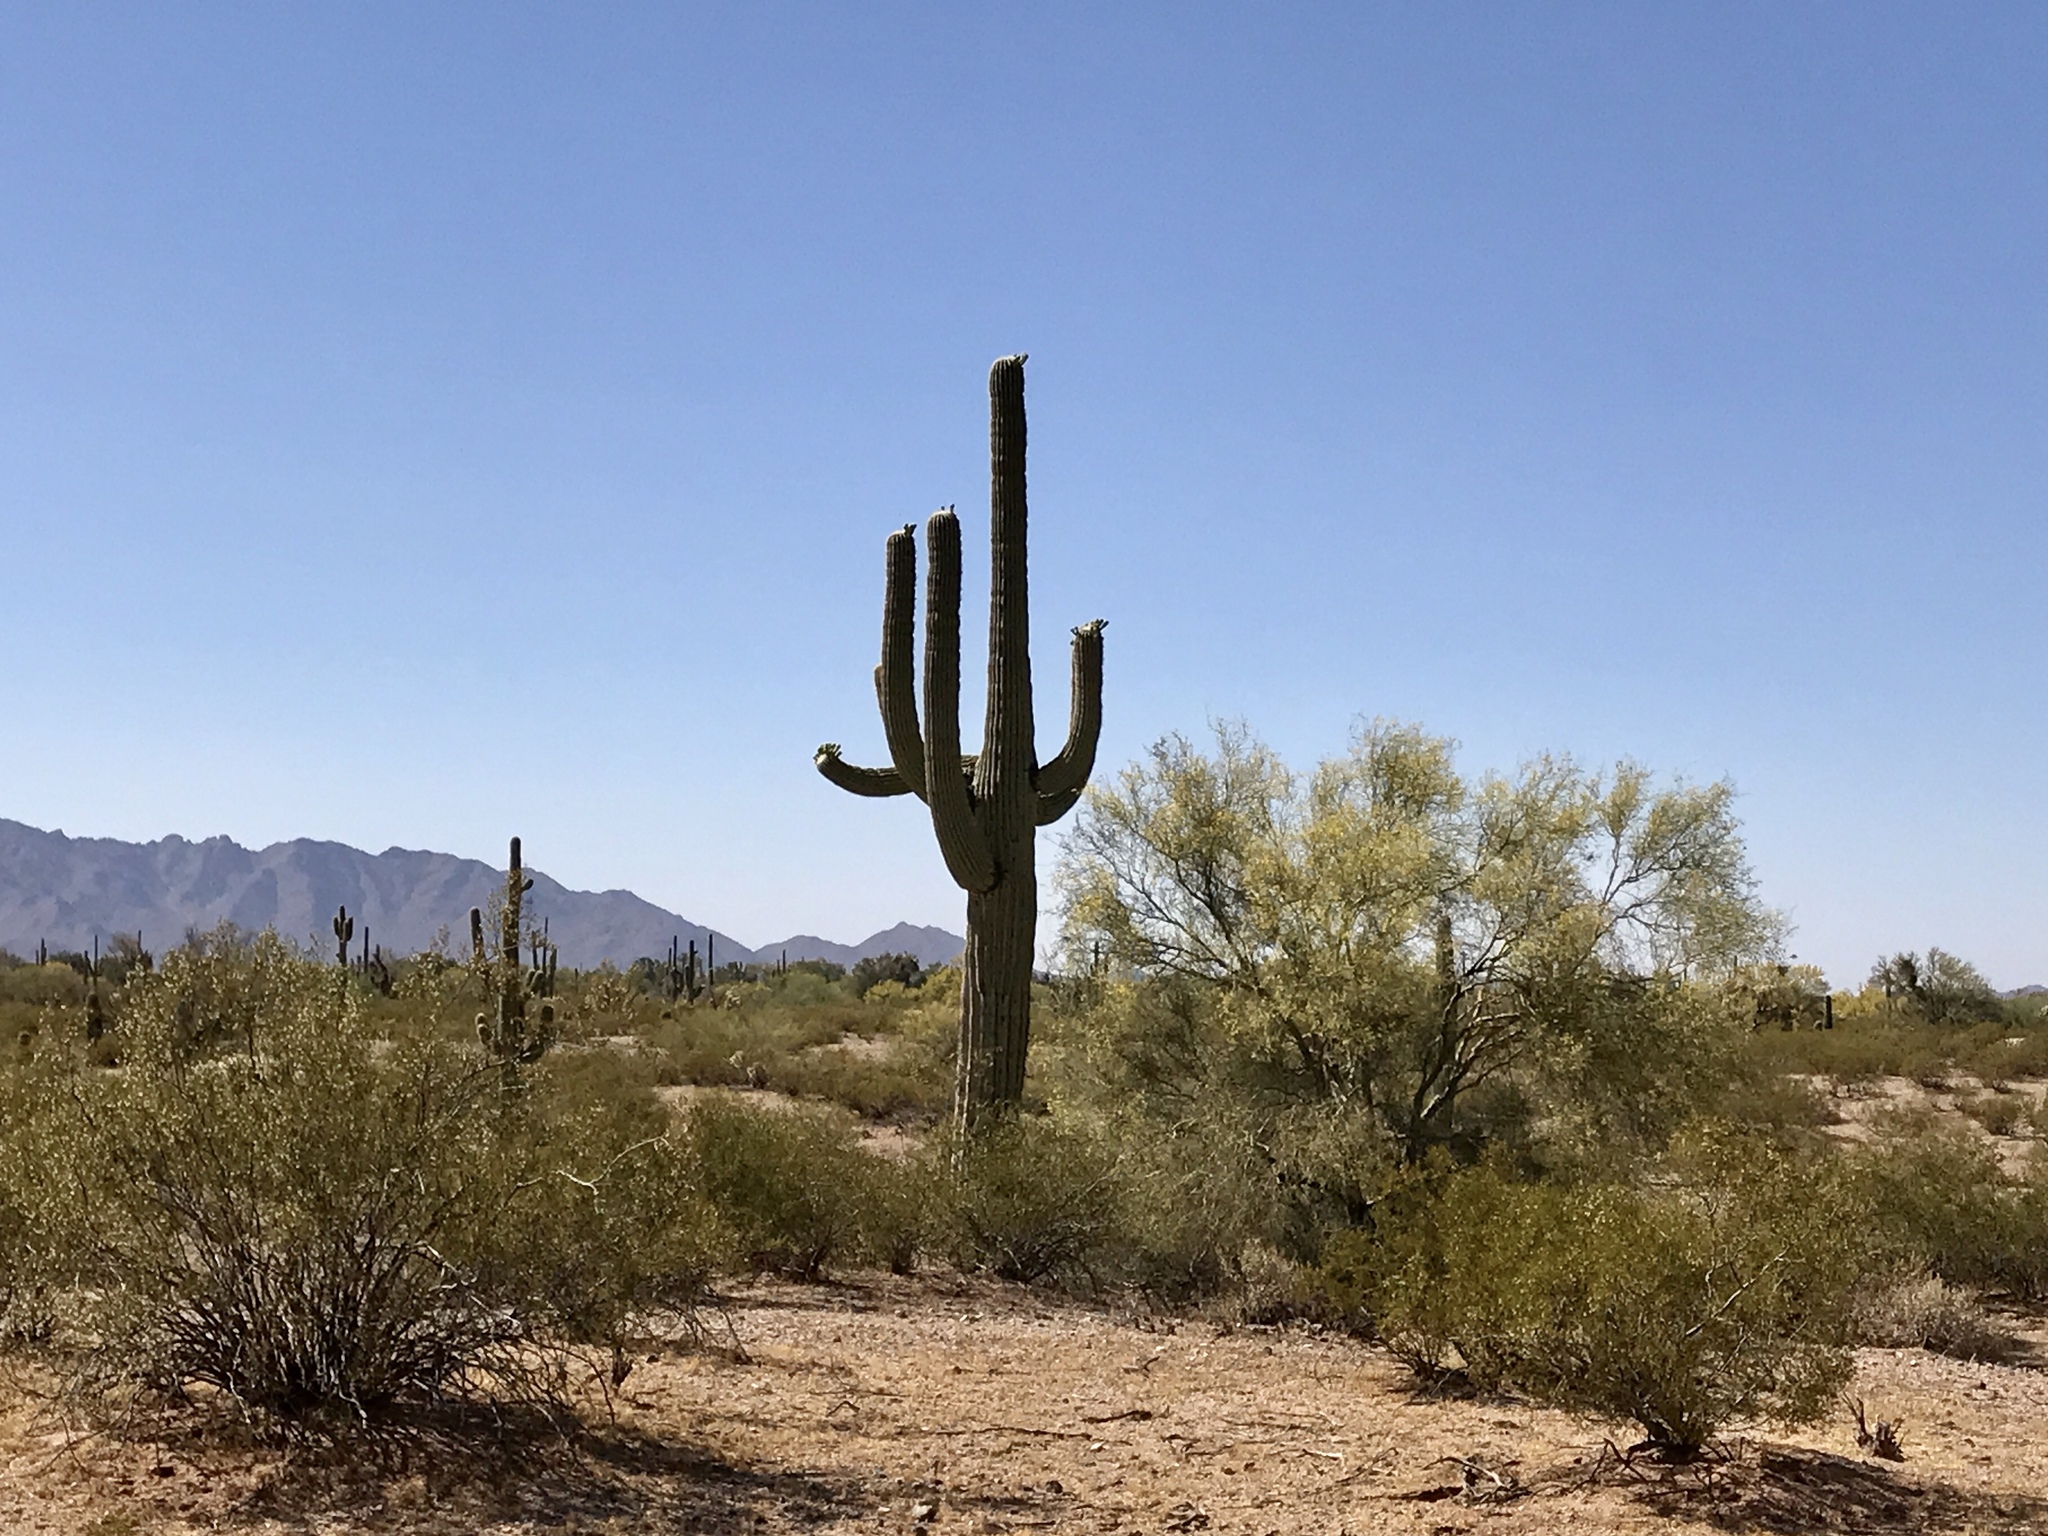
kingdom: Plantae
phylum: Tracheophyta
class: Magnoliopsida
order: Caryophyllales
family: Cactaceae
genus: Carnegiea
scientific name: Carnegiea gigantea
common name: Saguaro
